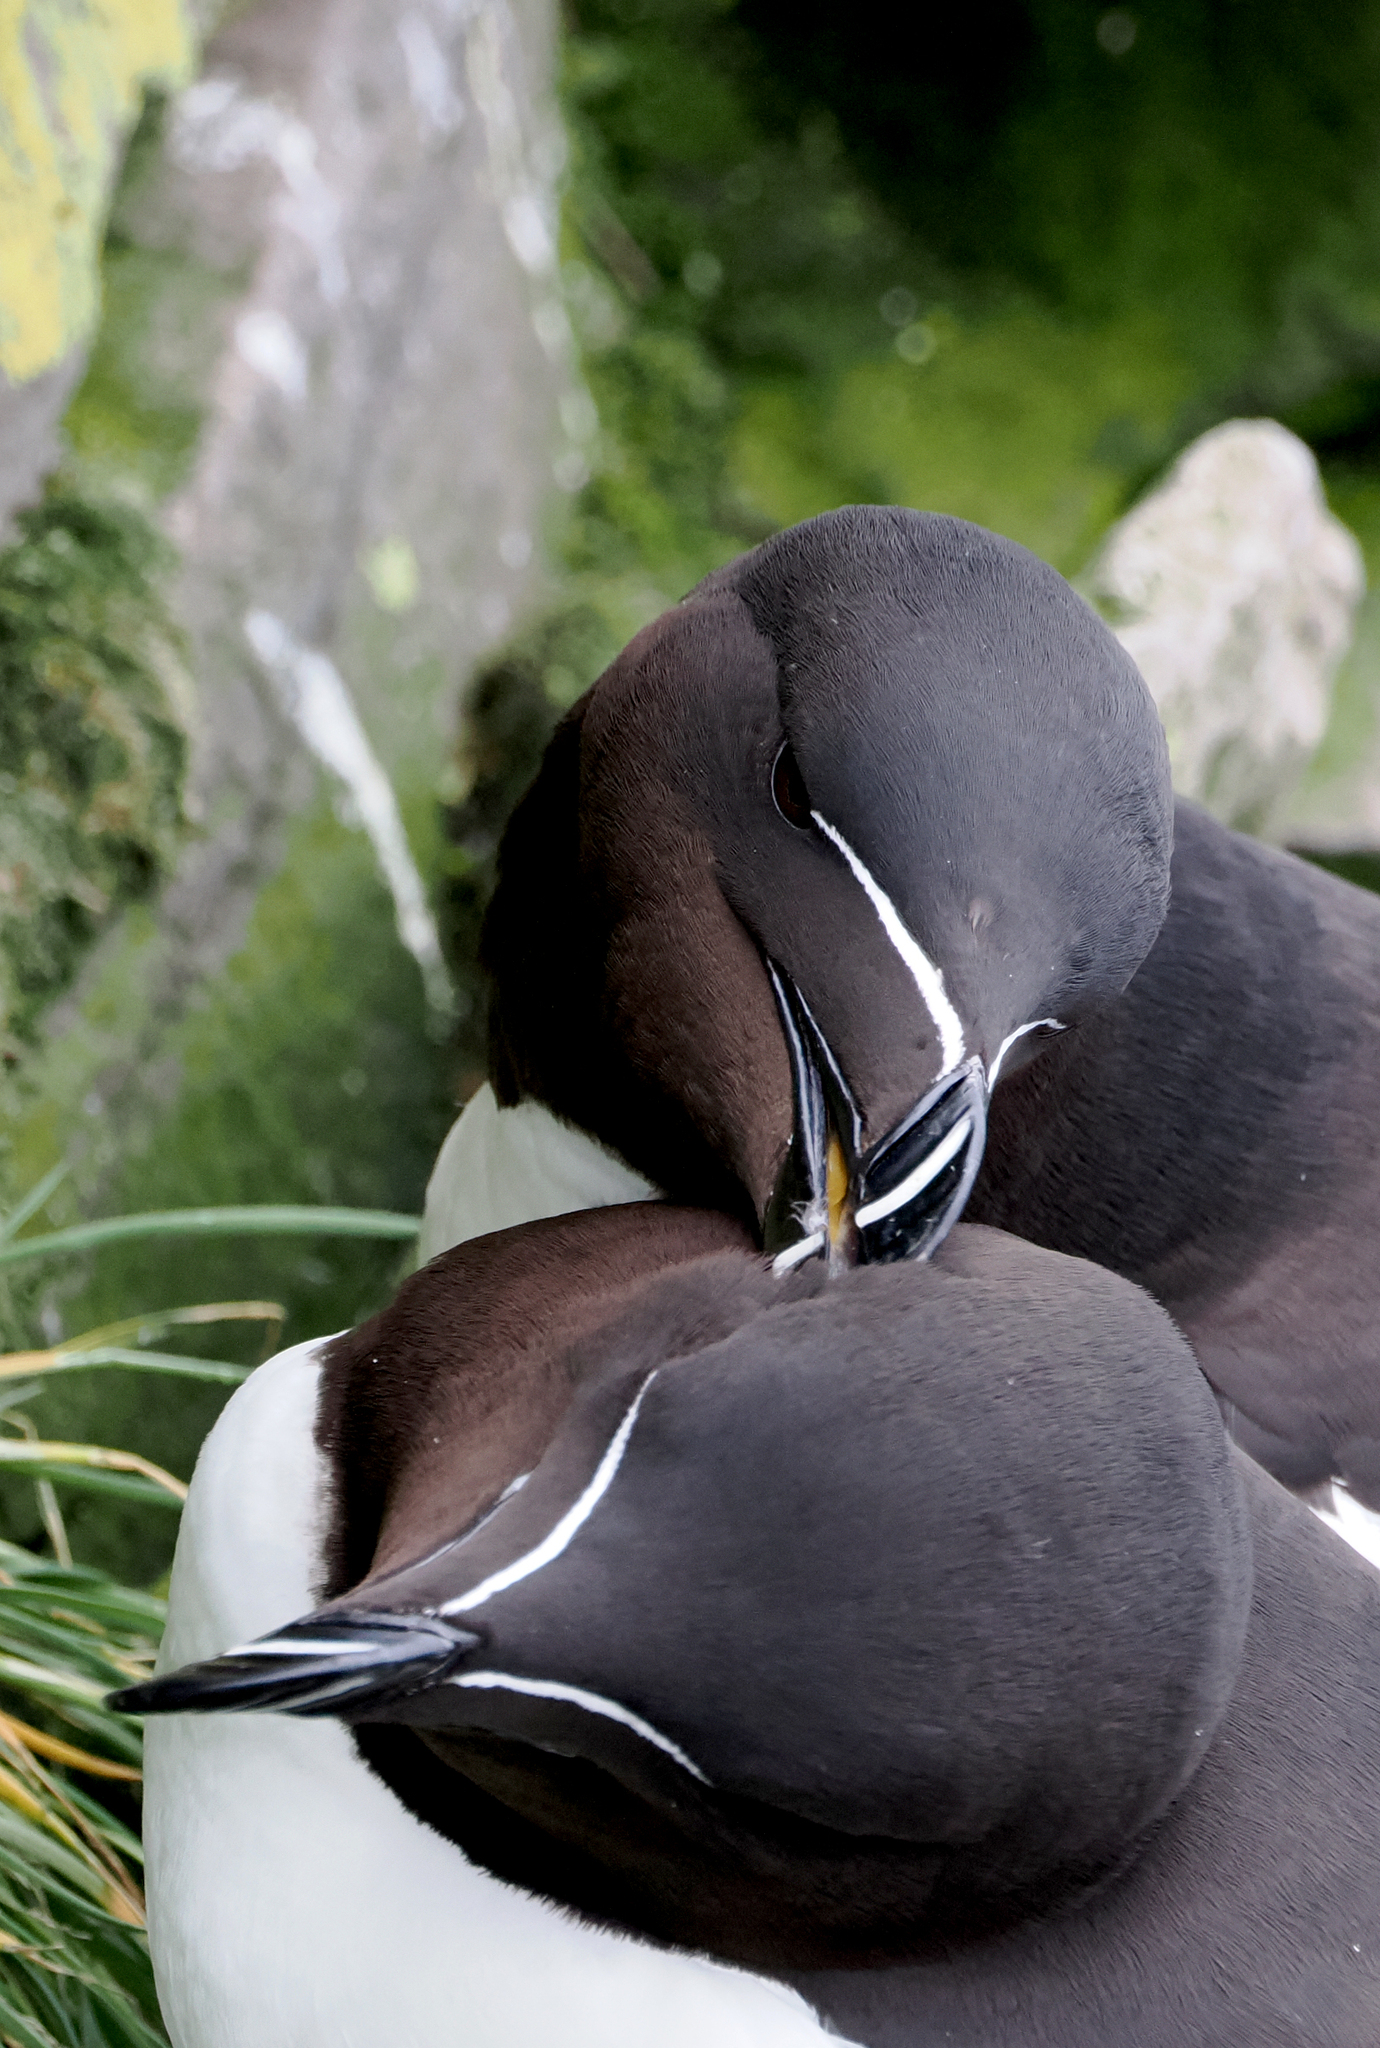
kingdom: Animalia
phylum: Chordata
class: Aves
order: Charadriiformes
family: Alcidae
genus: Alca
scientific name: Alca torda
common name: Razorbill
